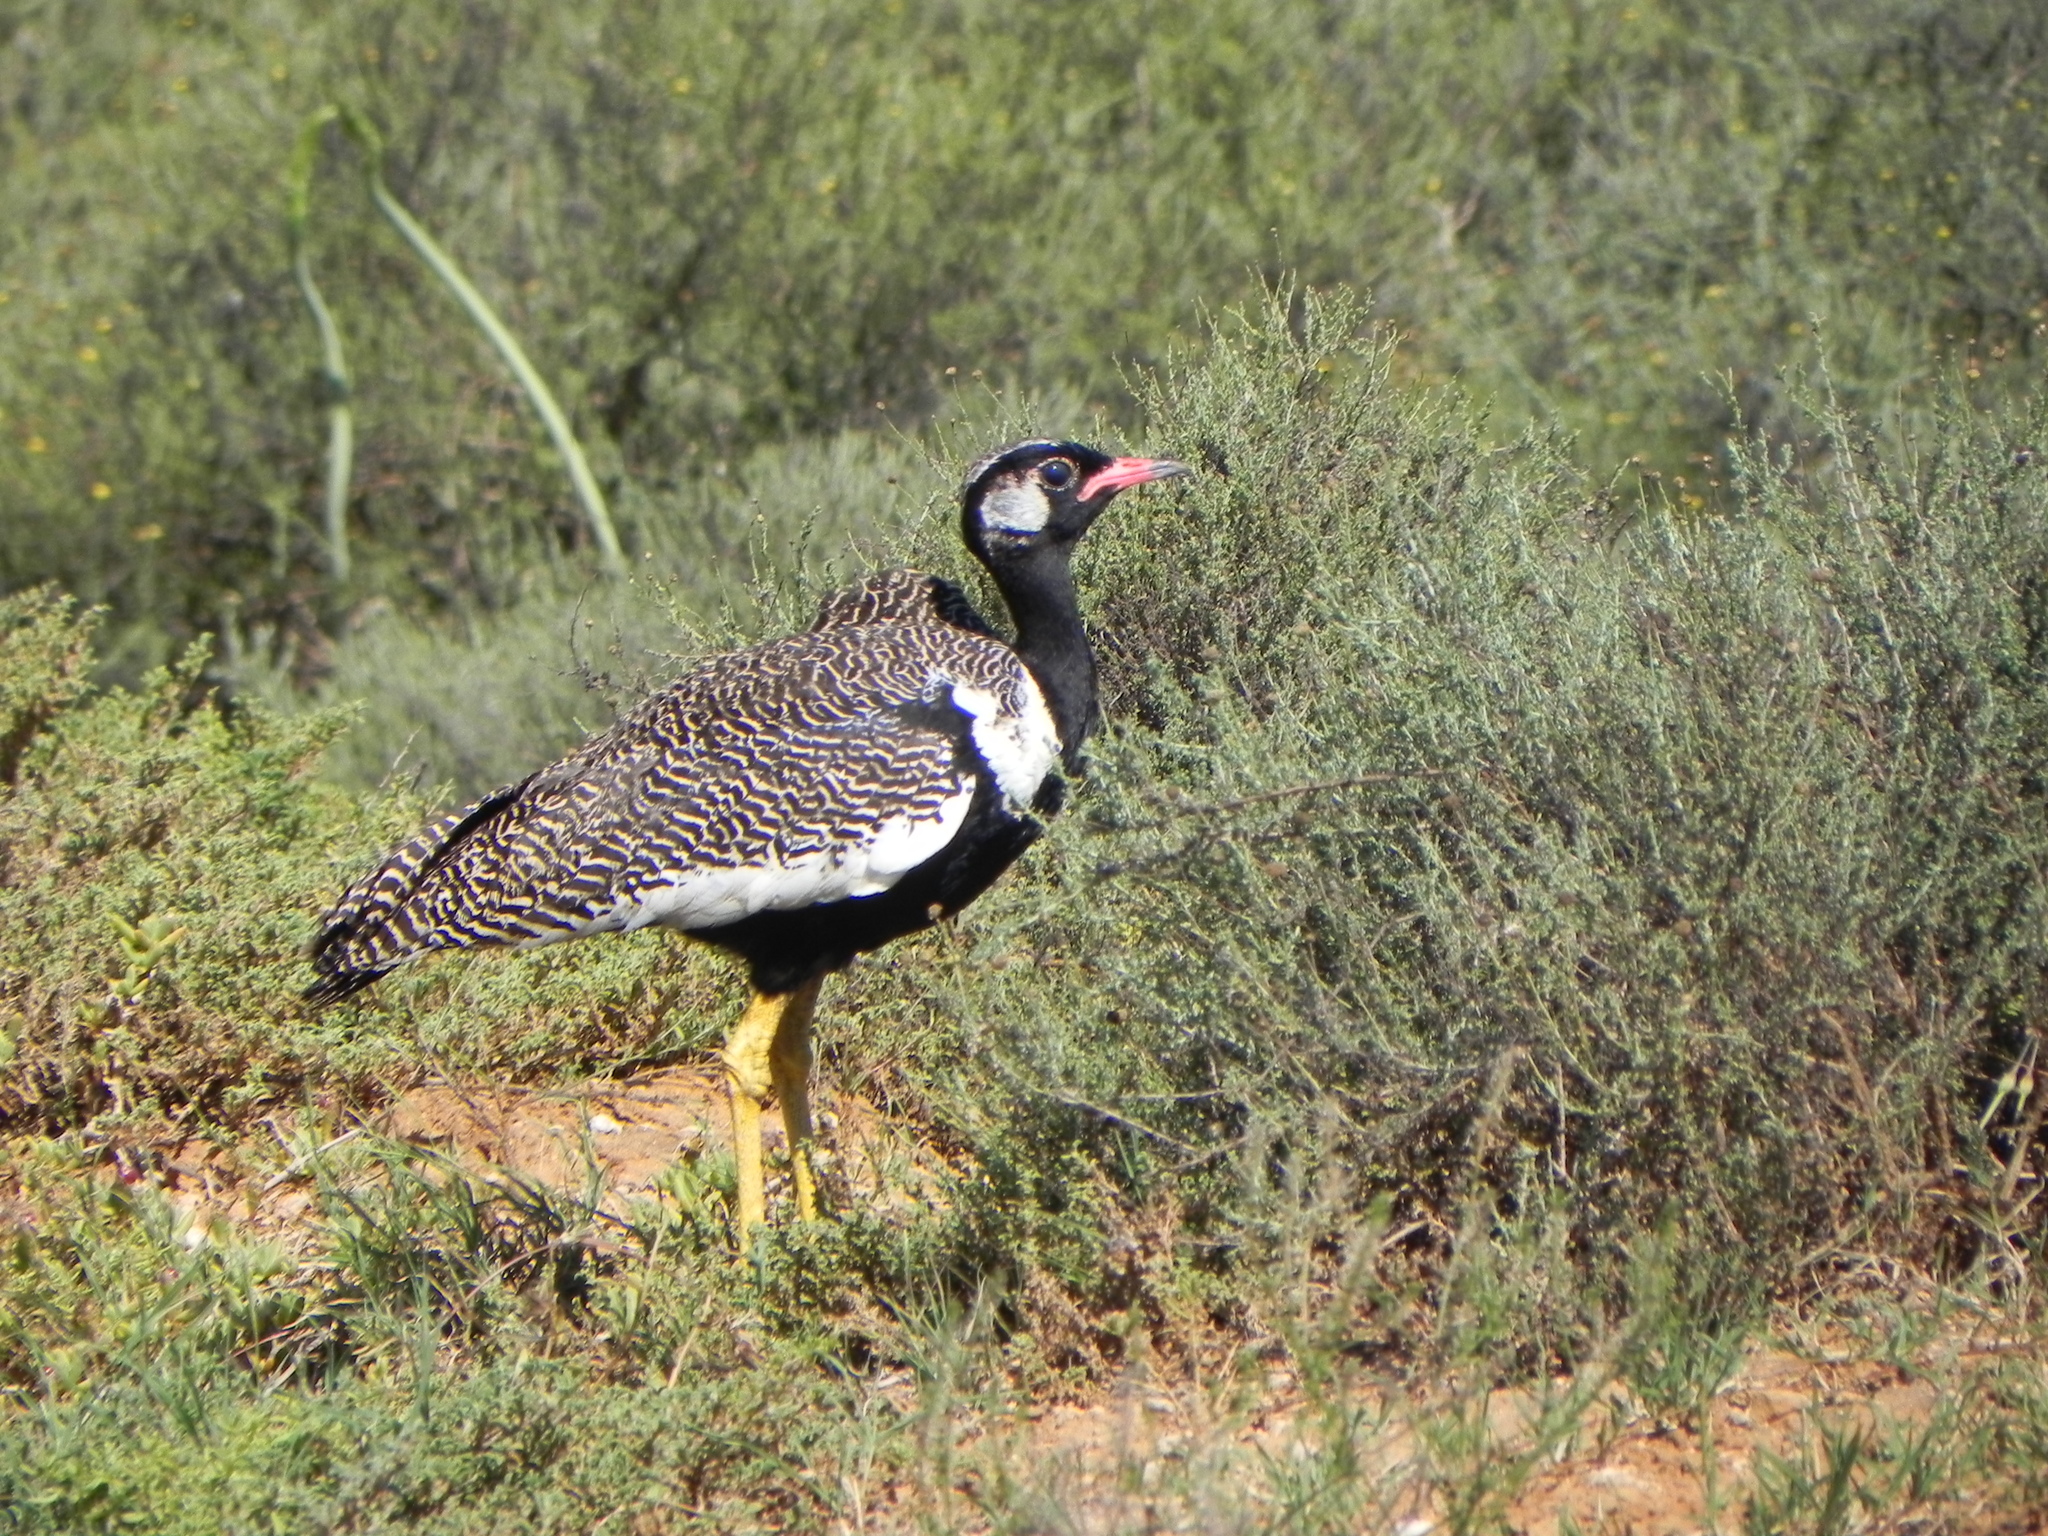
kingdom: Animalia
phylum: Chordata
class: Aves
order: Otidiformes
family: Otididae
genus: Afrotis
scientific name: Afrotis afra
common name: Southern black korhaan
